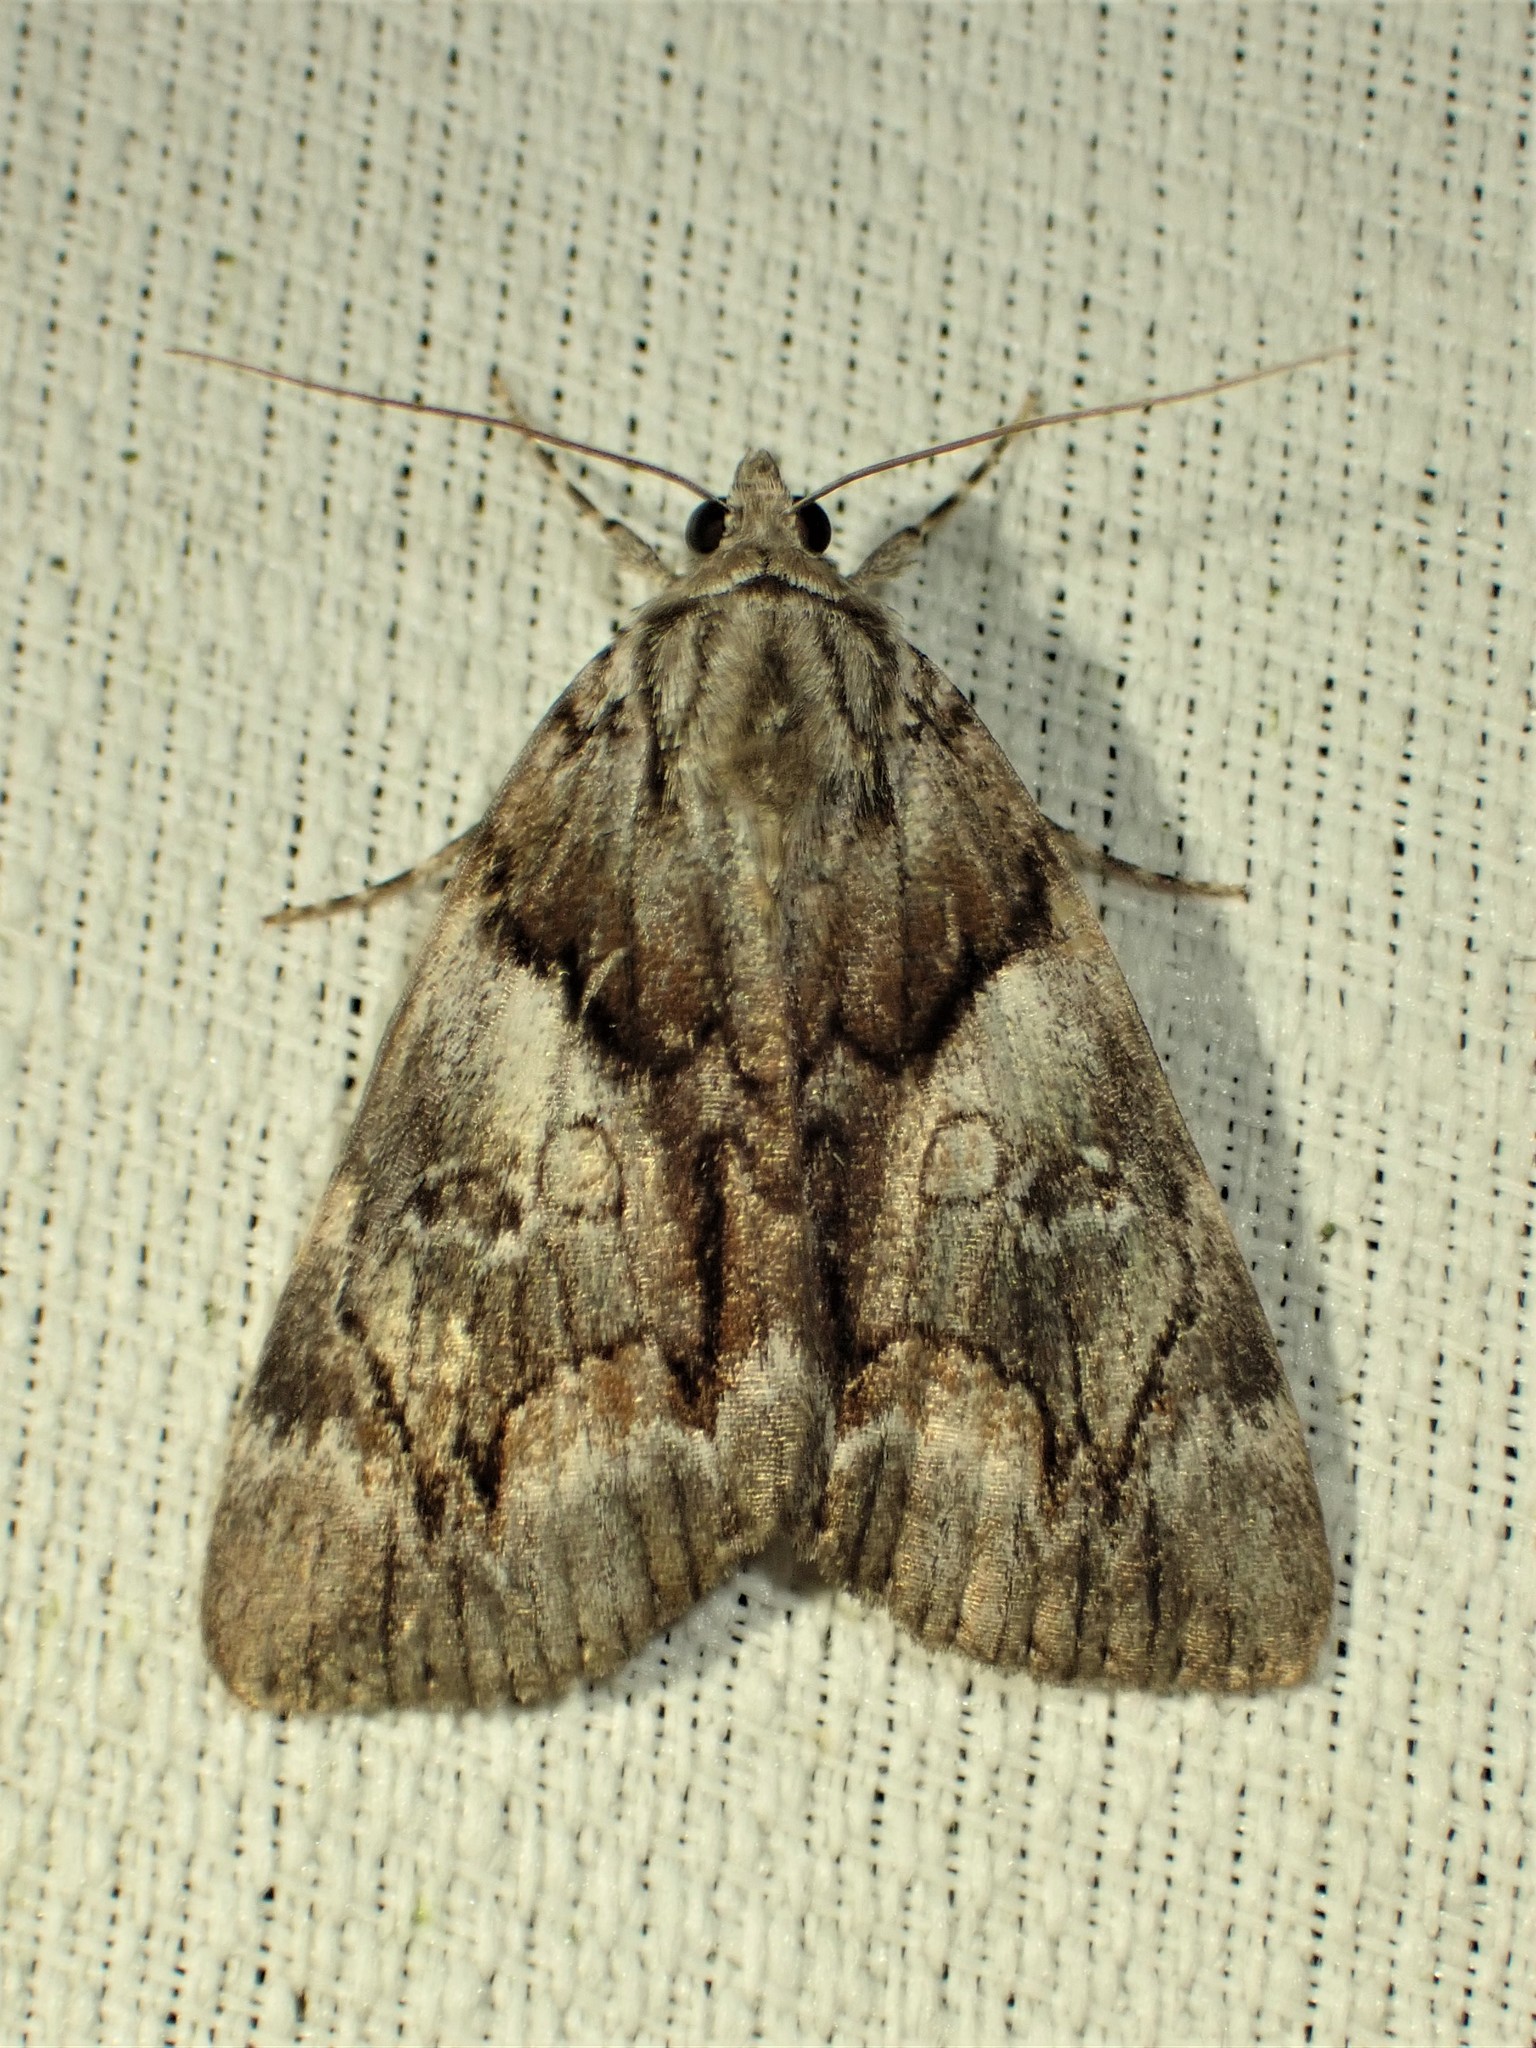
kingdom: Animalia
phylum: Arthropoda
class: Insecta
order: Lepidoptera
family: Erebidae
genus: Catocala
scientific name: Catocala blandula
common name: Charming underwing
